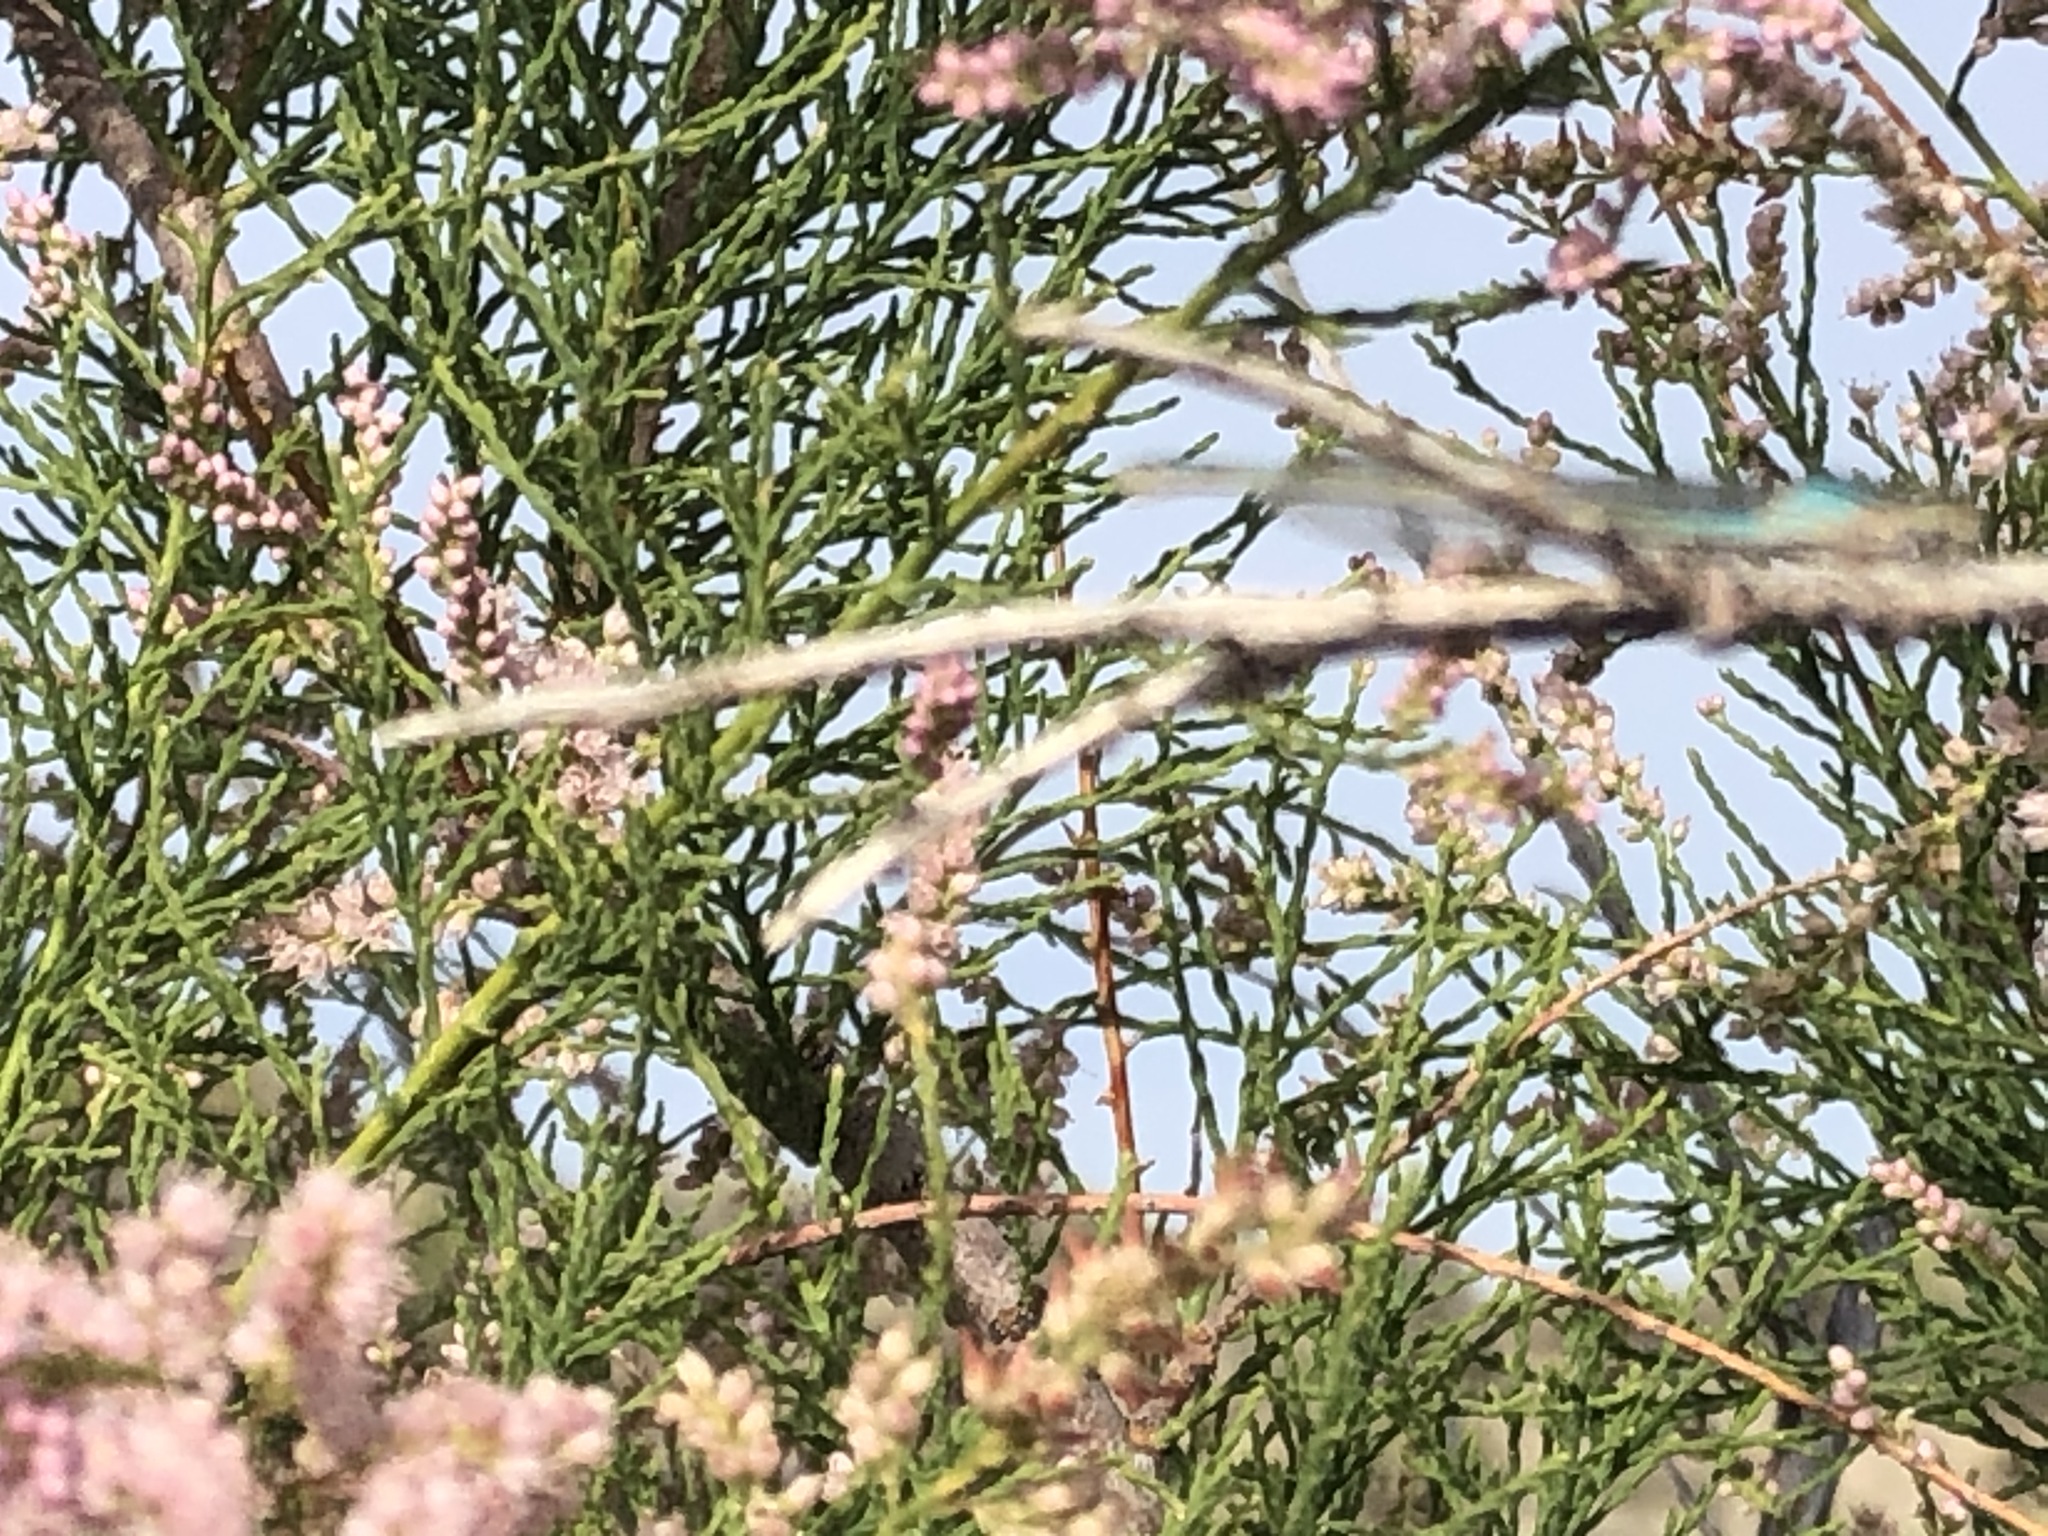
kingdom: Plantae
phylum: Tracheophyta
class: Magnoliopsida
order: Caryophyllales
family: Tamaricaceae
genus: Tamarix
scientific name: Tamarix ramosissima
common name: Pink tamarisk
